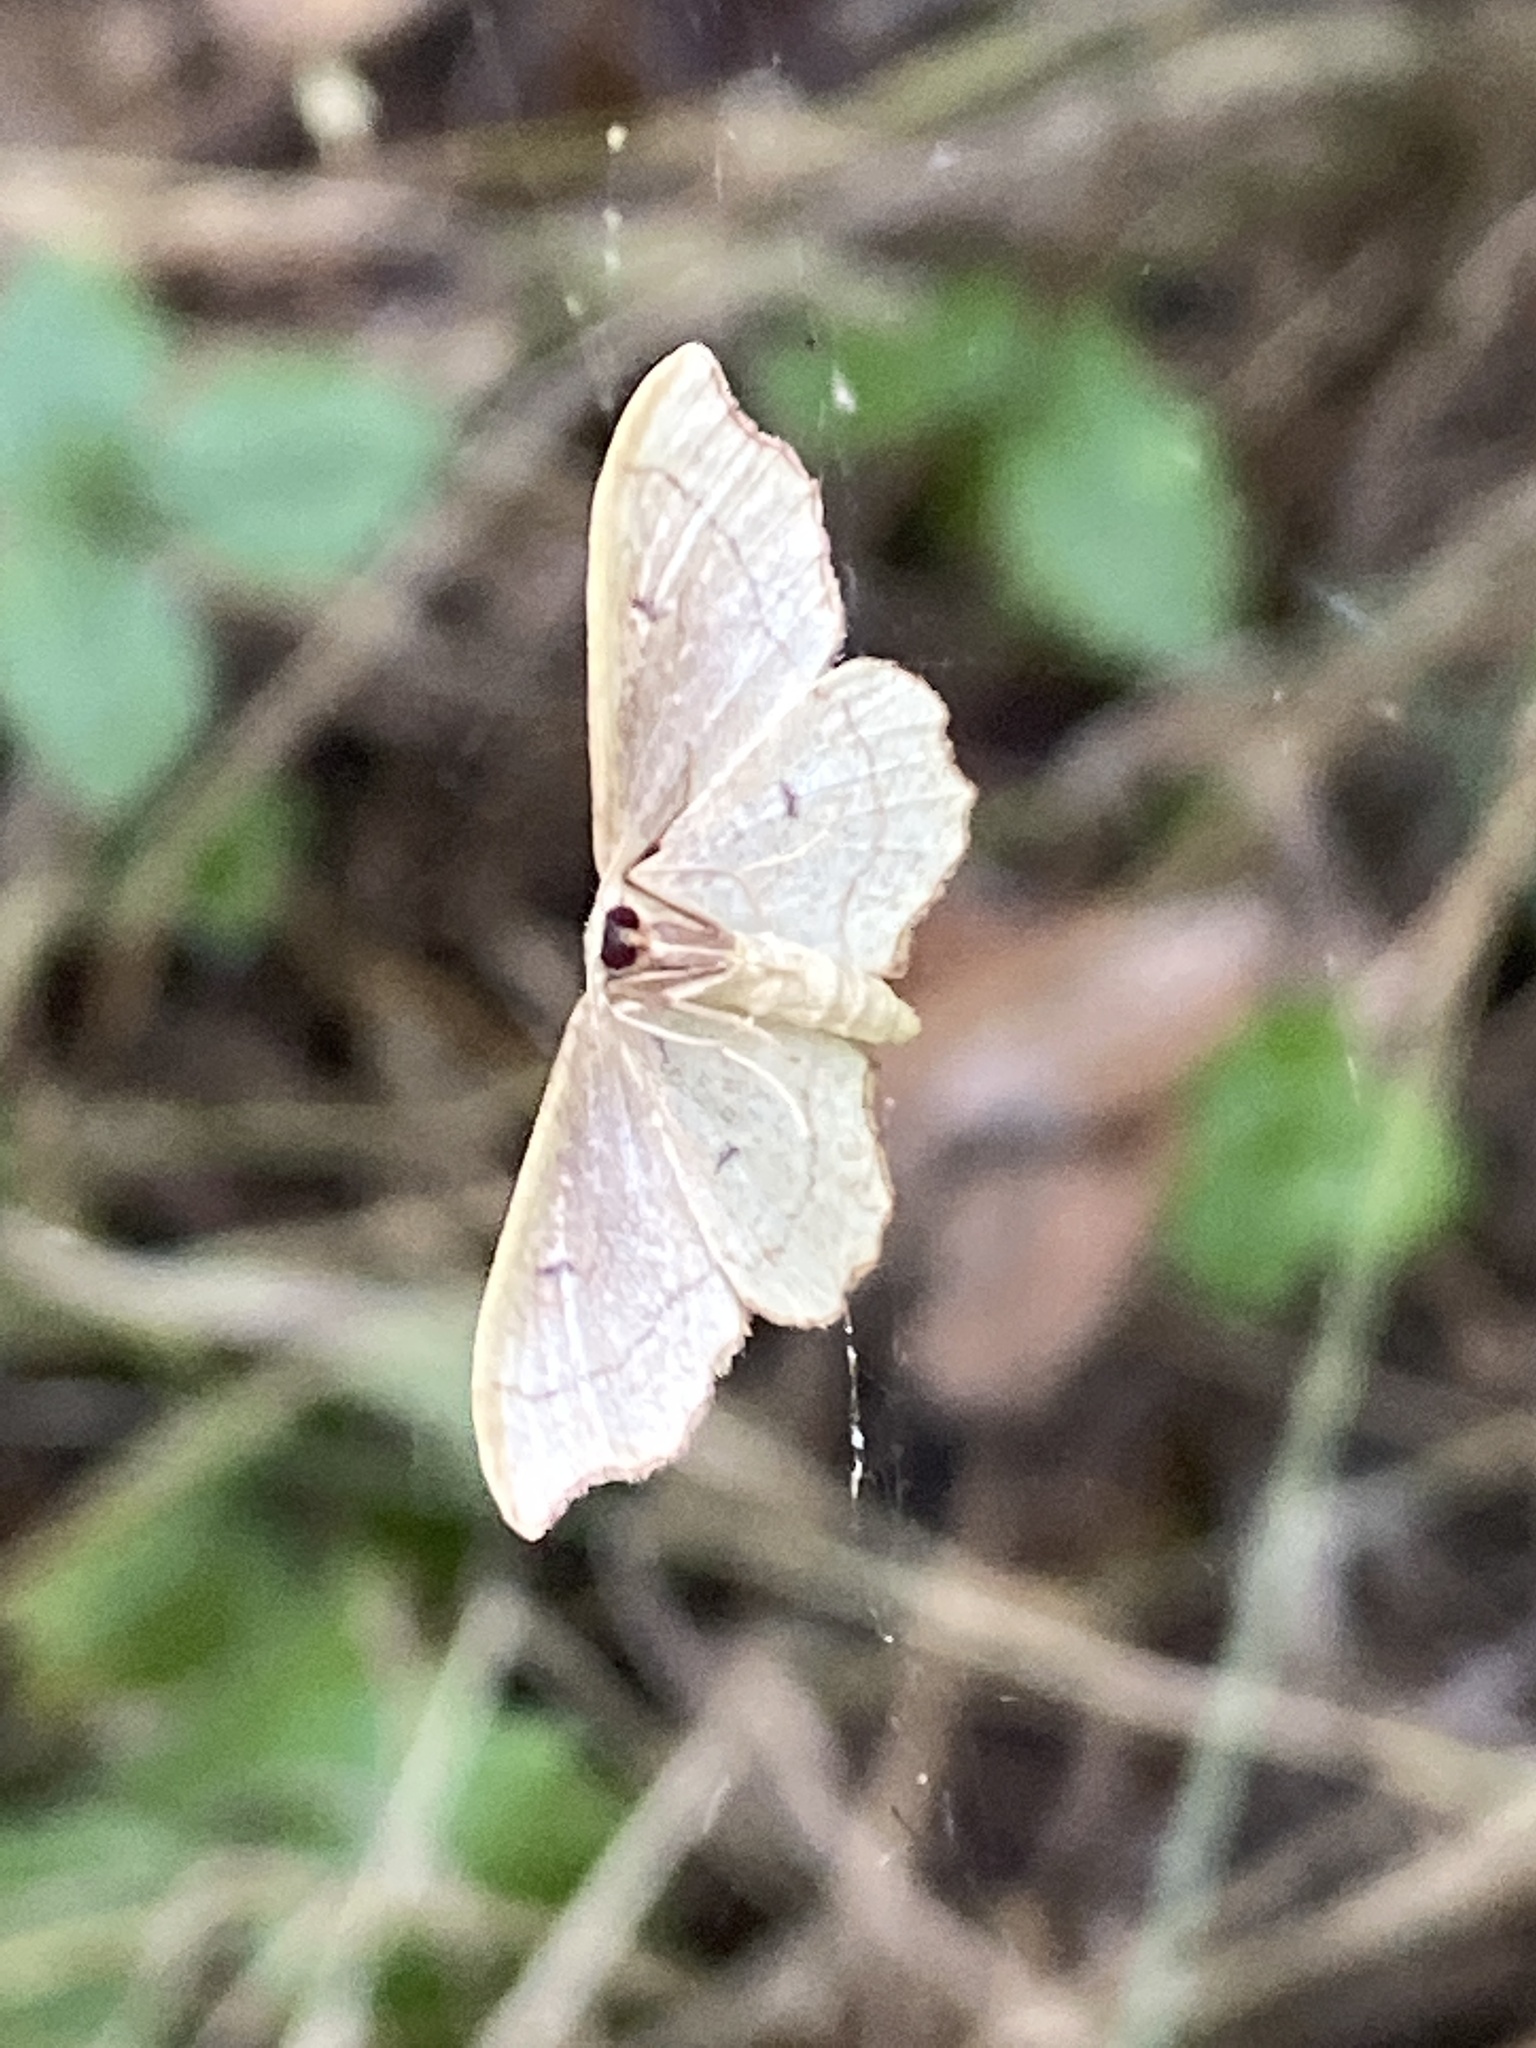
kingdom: Animalia
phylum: Arthropoda
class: Insecta
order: Lepidoptera
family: Geometridae
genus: Idaea
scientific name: Idaea emarginata
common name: Small scallop
